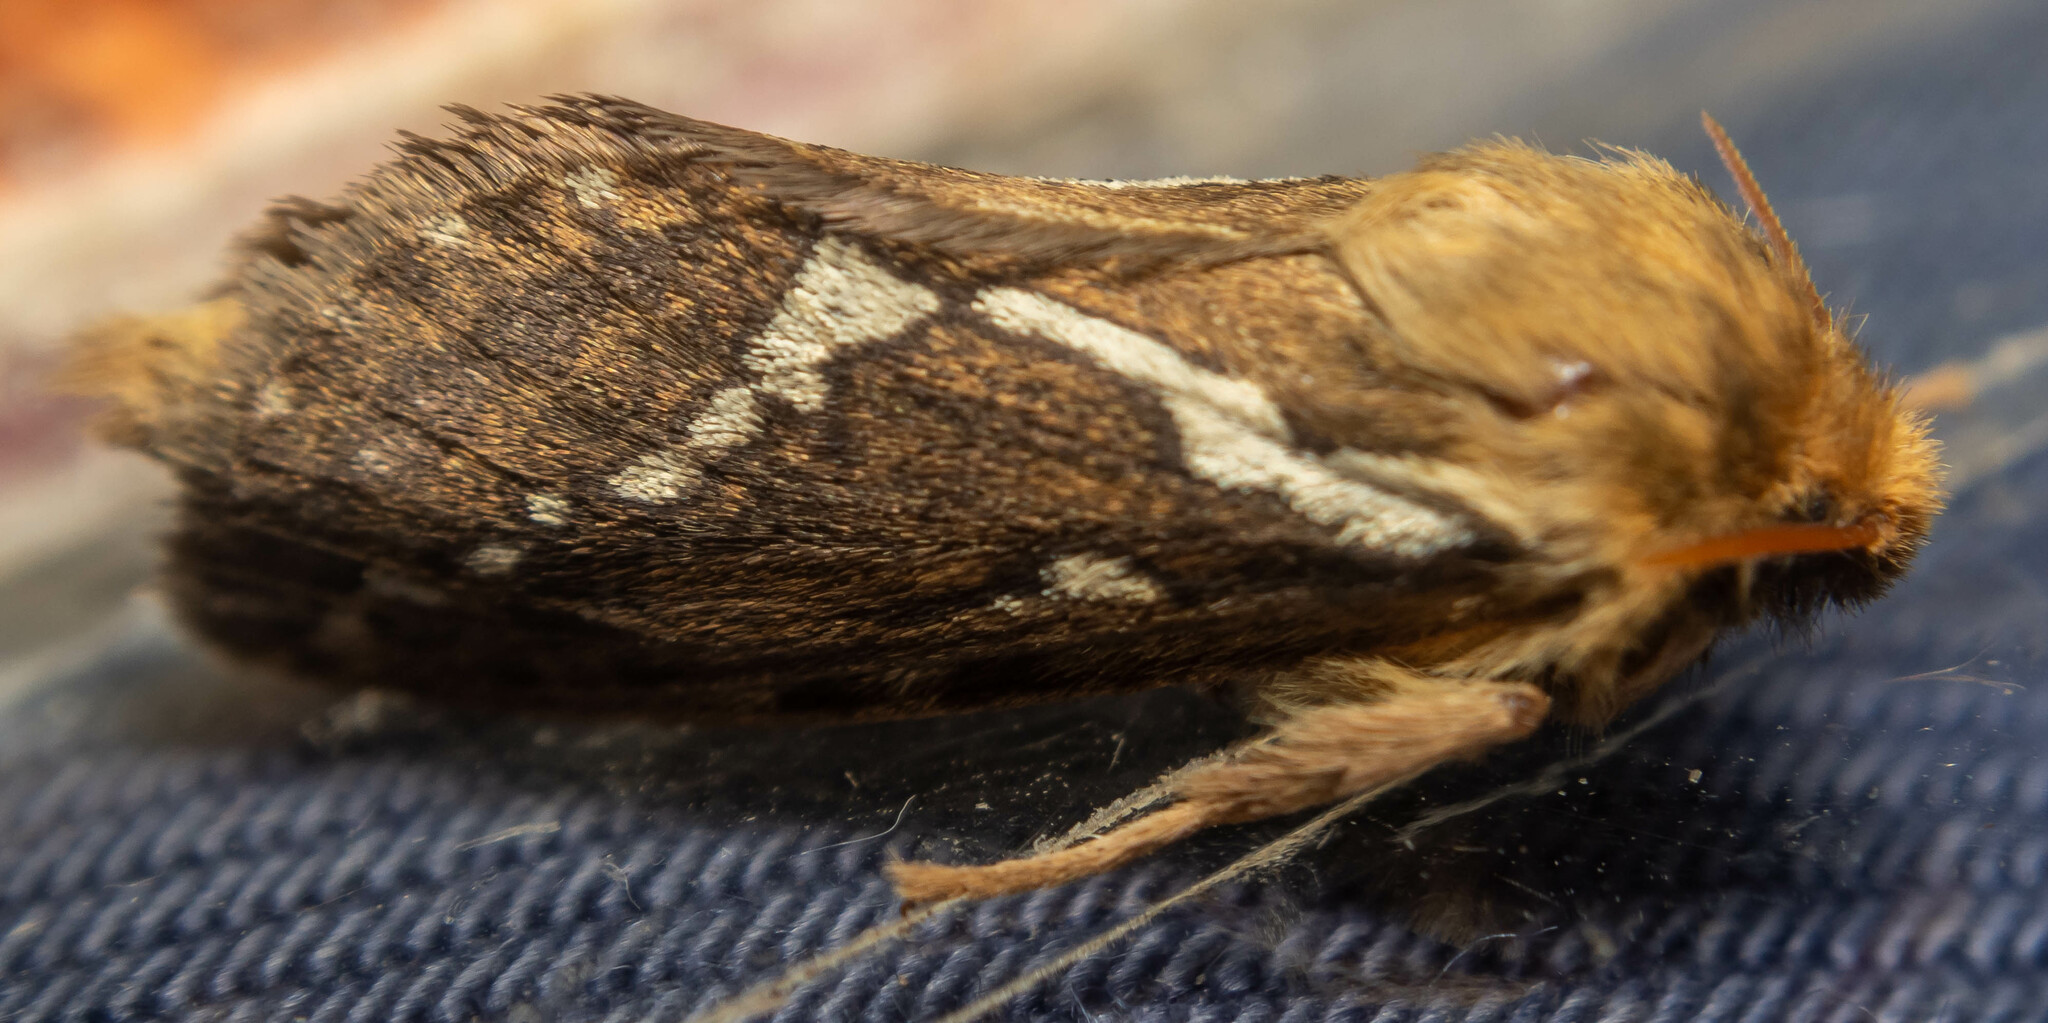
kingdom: Animalia
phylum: Arthropoda
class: Insecta
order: Lepidoptera
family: Hepialidae
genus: Korscheltellus
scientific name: Korscheltellus lupulina
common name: Common swift
